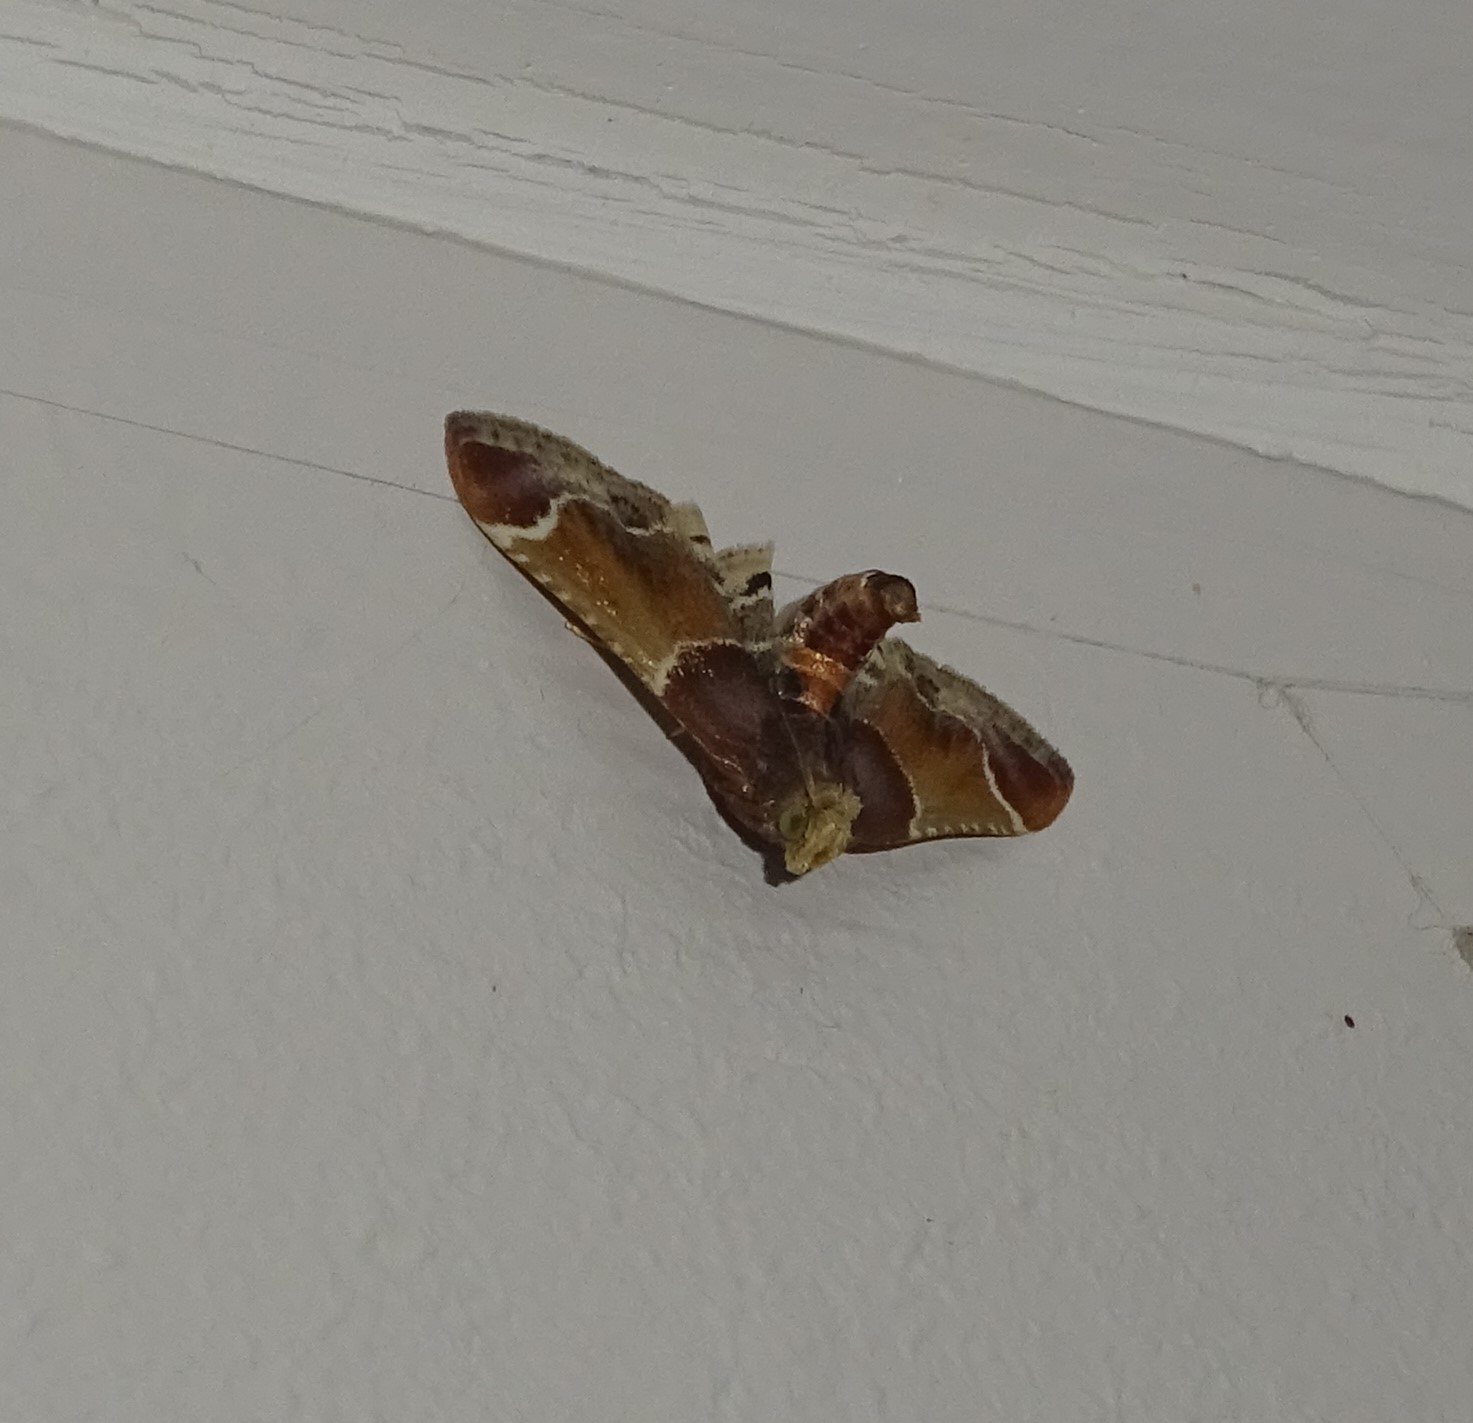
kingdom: Animalia
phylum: Arthropoda
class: Insecta
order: Lepidoptera
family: Pyralidae
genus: Pyralis
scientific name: Pyralis farinalis
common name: Meal moth
